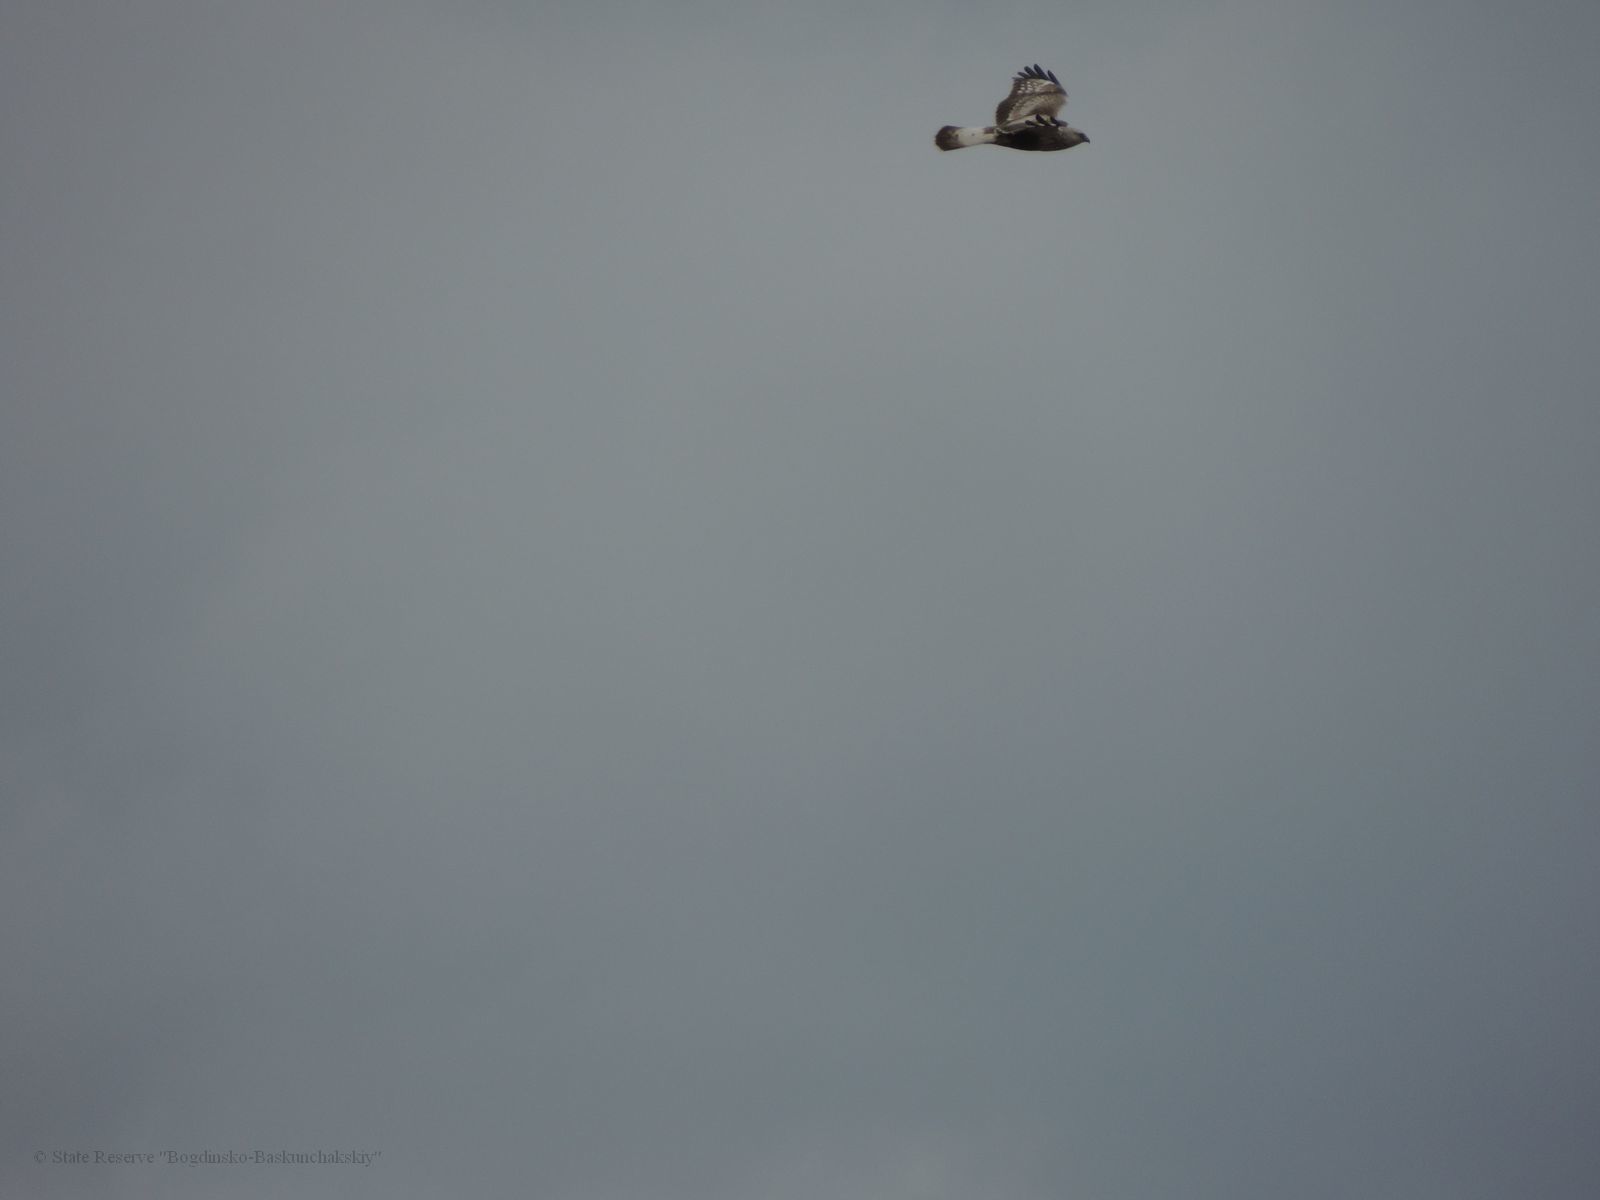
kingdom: Animalia
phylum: Chordata
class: Aves
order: Accipitriformes
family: Accipitridae
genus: Buteo
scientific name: Buteo lagopus
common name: Rough-legged buzzard
